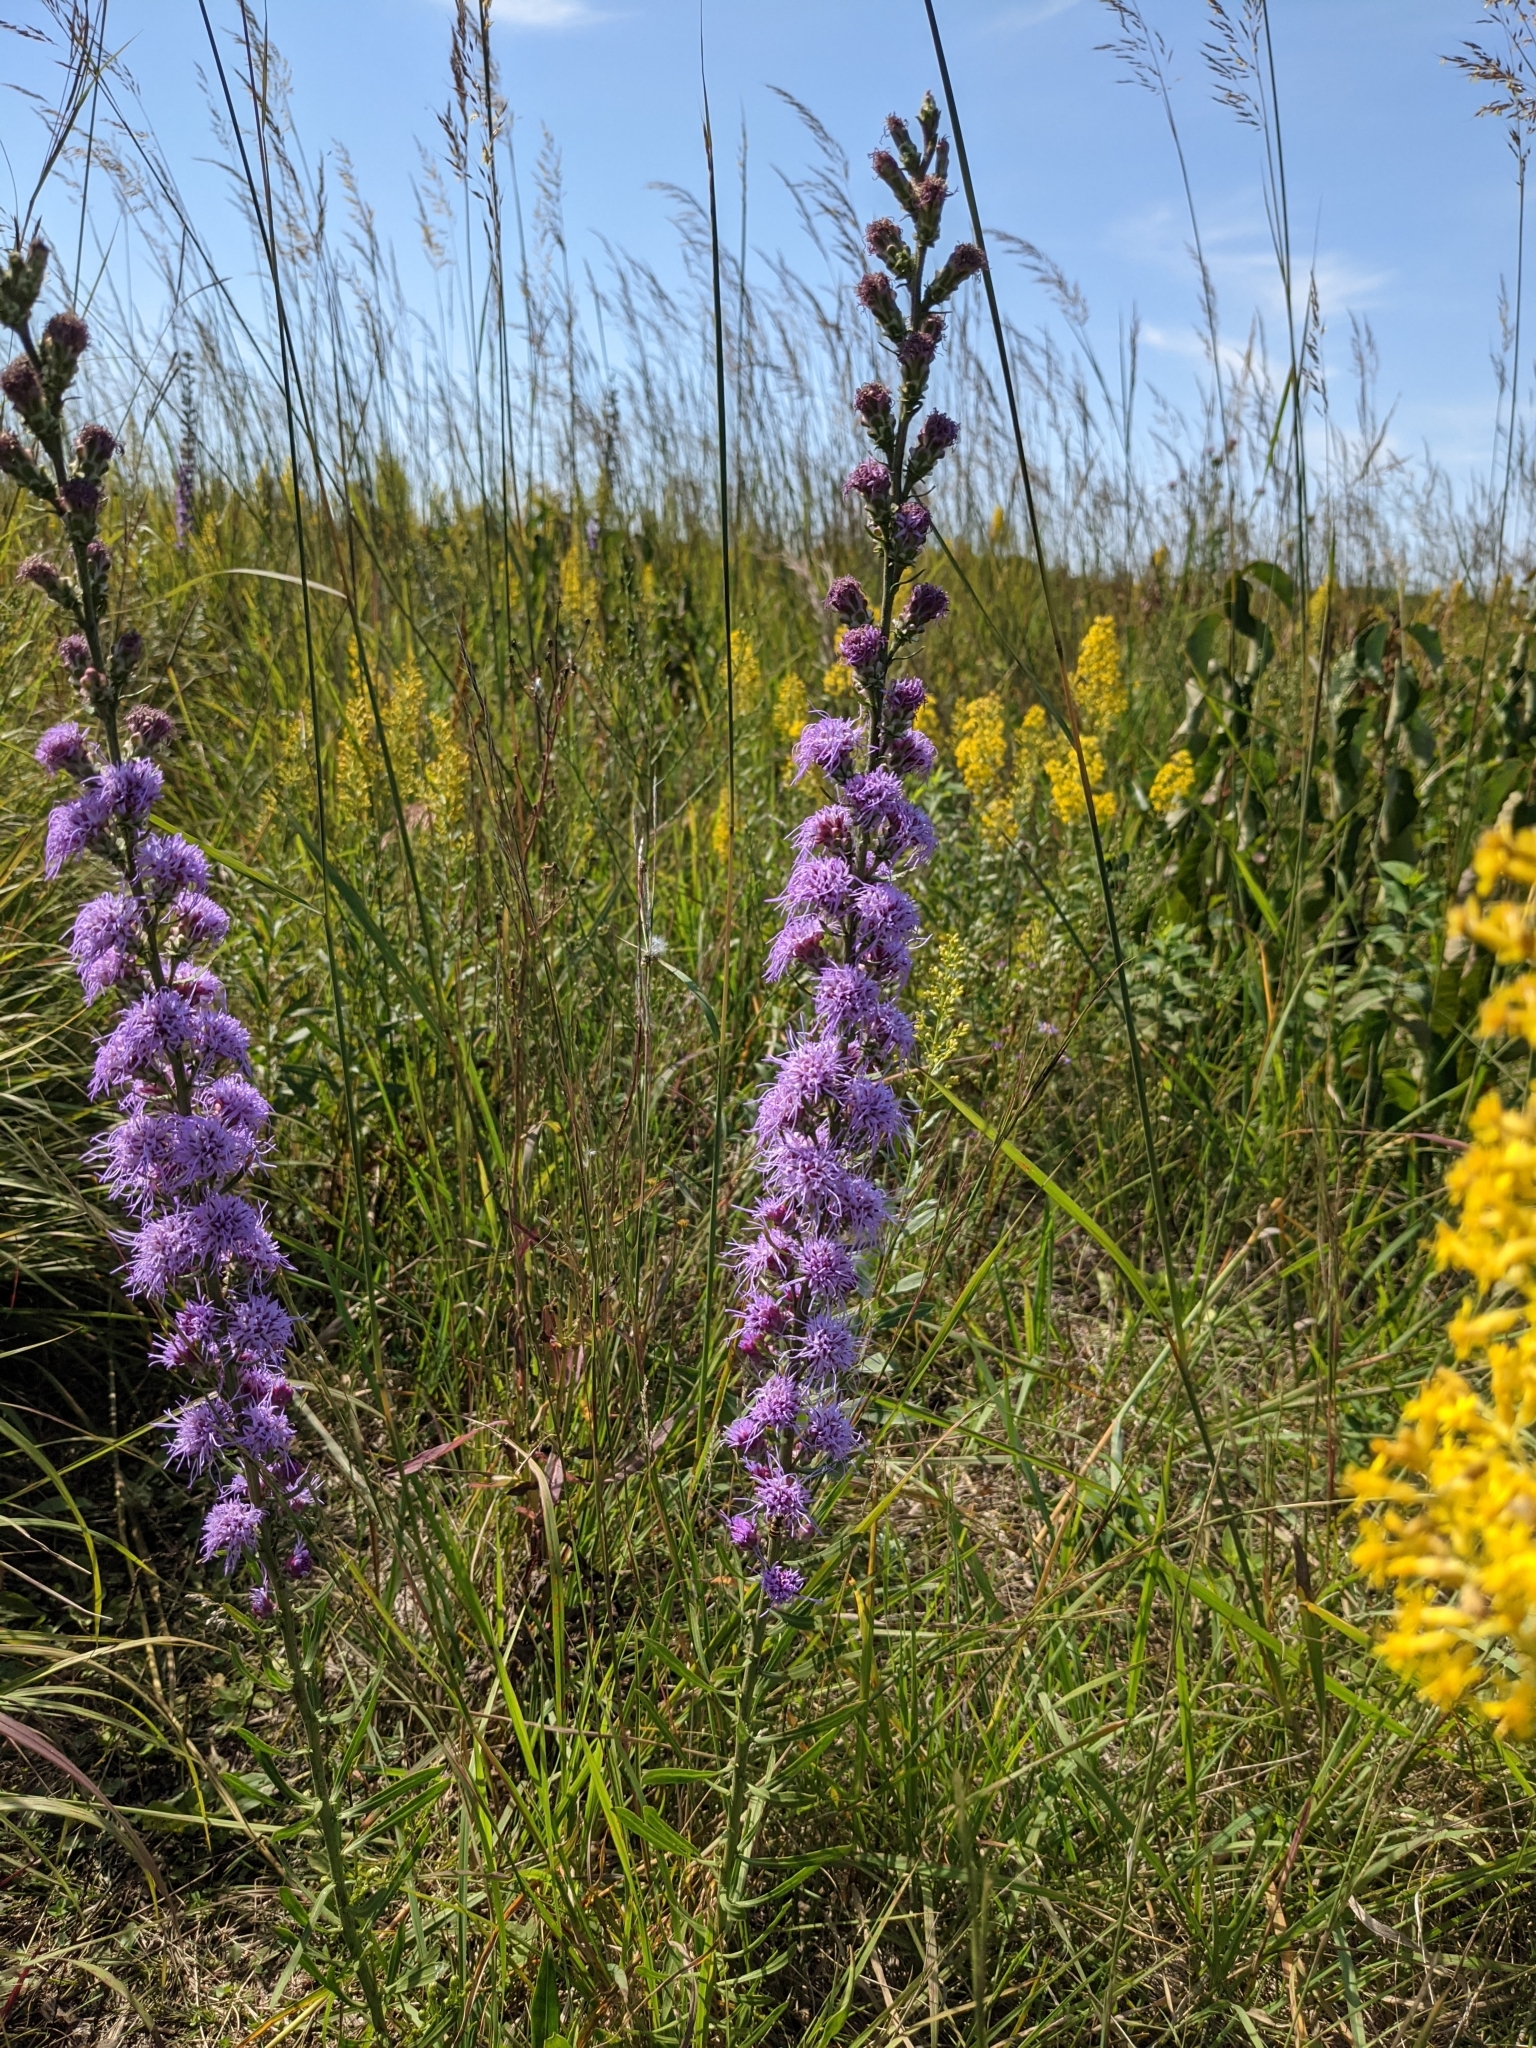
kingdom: Plantae
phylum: Tracheophyta
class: Magnoliopsida
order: Asterales
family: Asteraceae
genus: Liatris
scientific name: Liatris aspera
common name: Lacerate blazing-star
